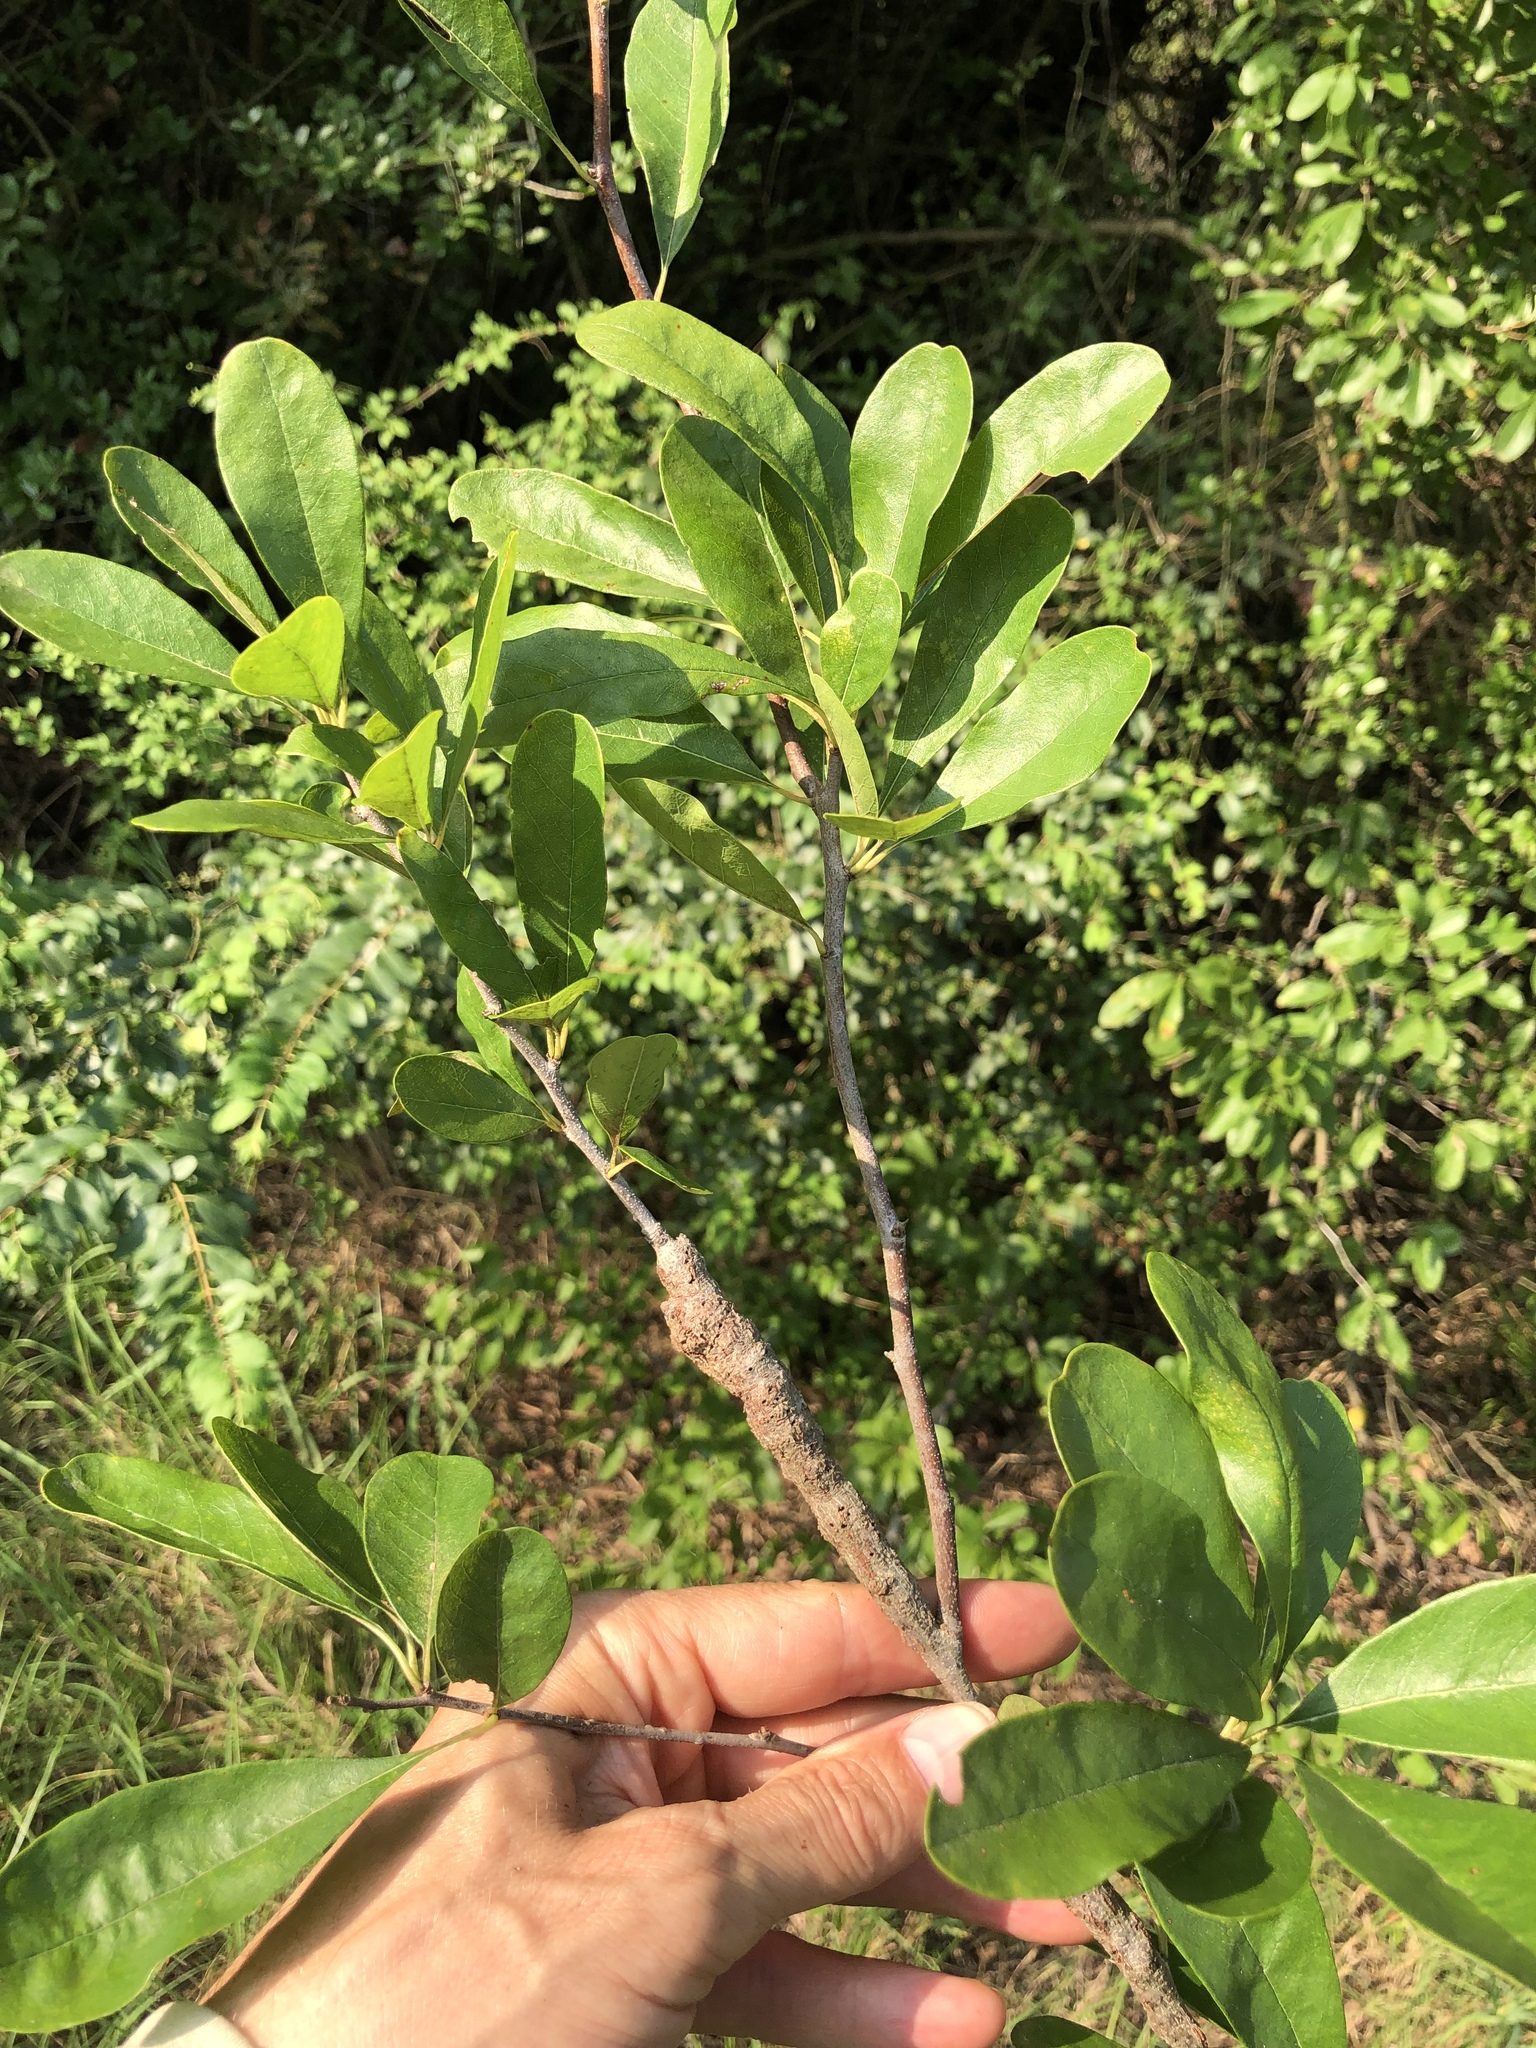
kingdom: Animalia
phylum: Arthropoda
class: Insecta
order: Diptera
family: Cecidomyiidae
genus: Bruggmanniella
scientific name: Bruggmanniella bumeliae
